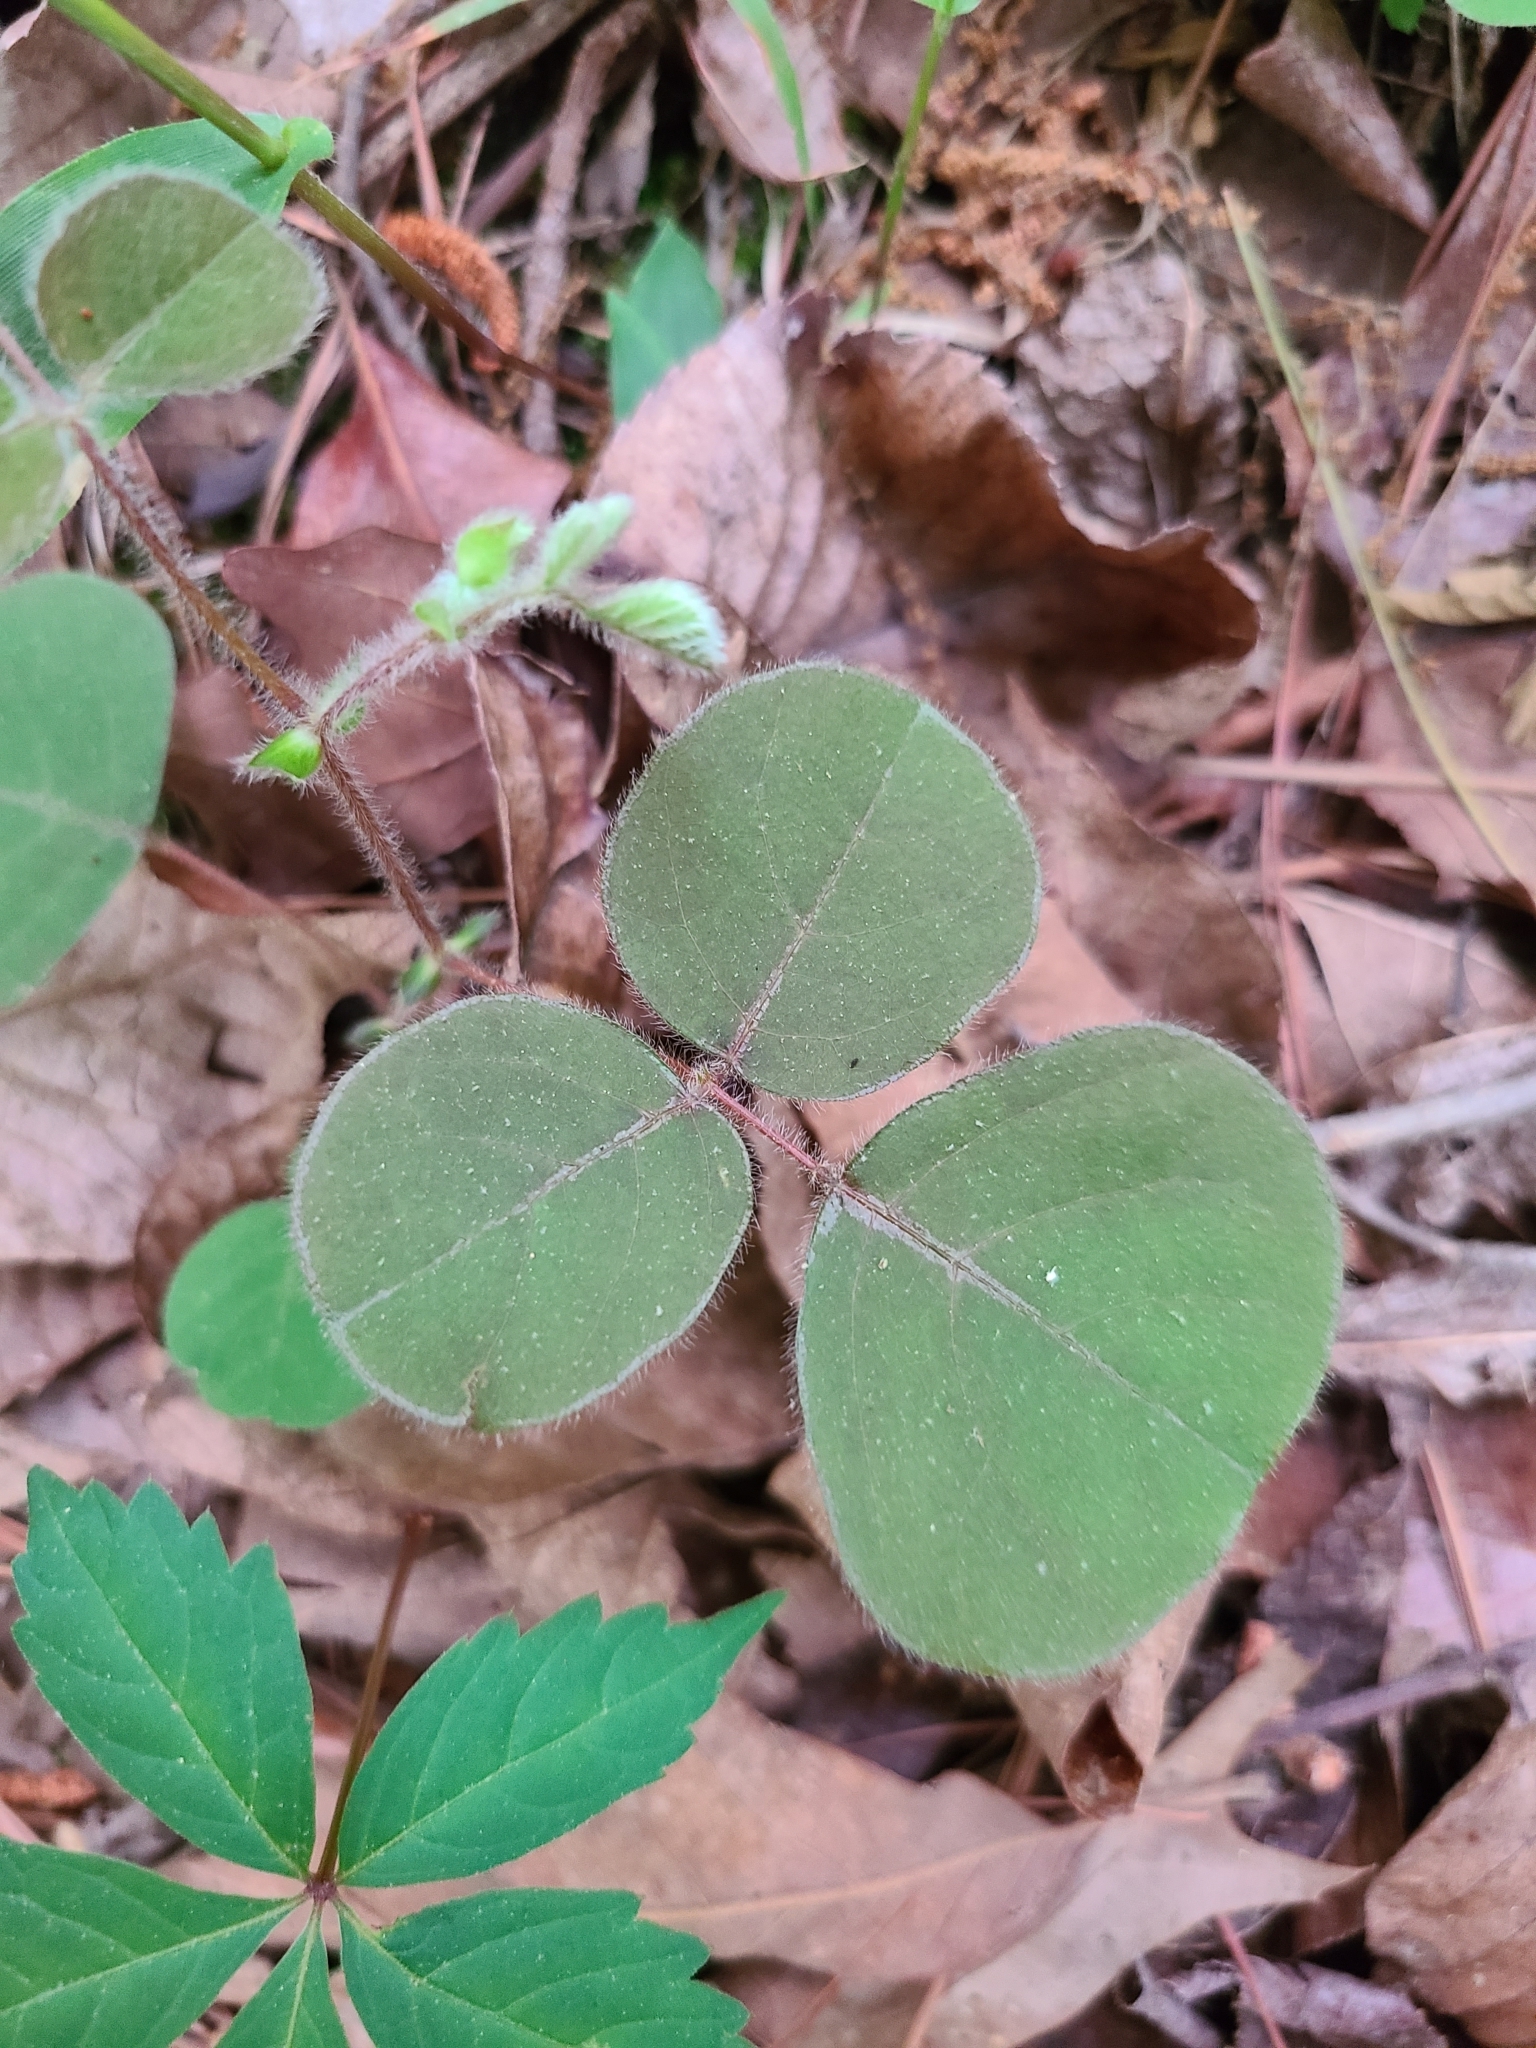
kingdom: Plantae
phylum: Tracheophyta
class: Magnoliopsida
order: Fabales
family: Fabaceae
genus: Desmodium
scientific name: Desmodium rotundifolium
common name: Dollarleaf
